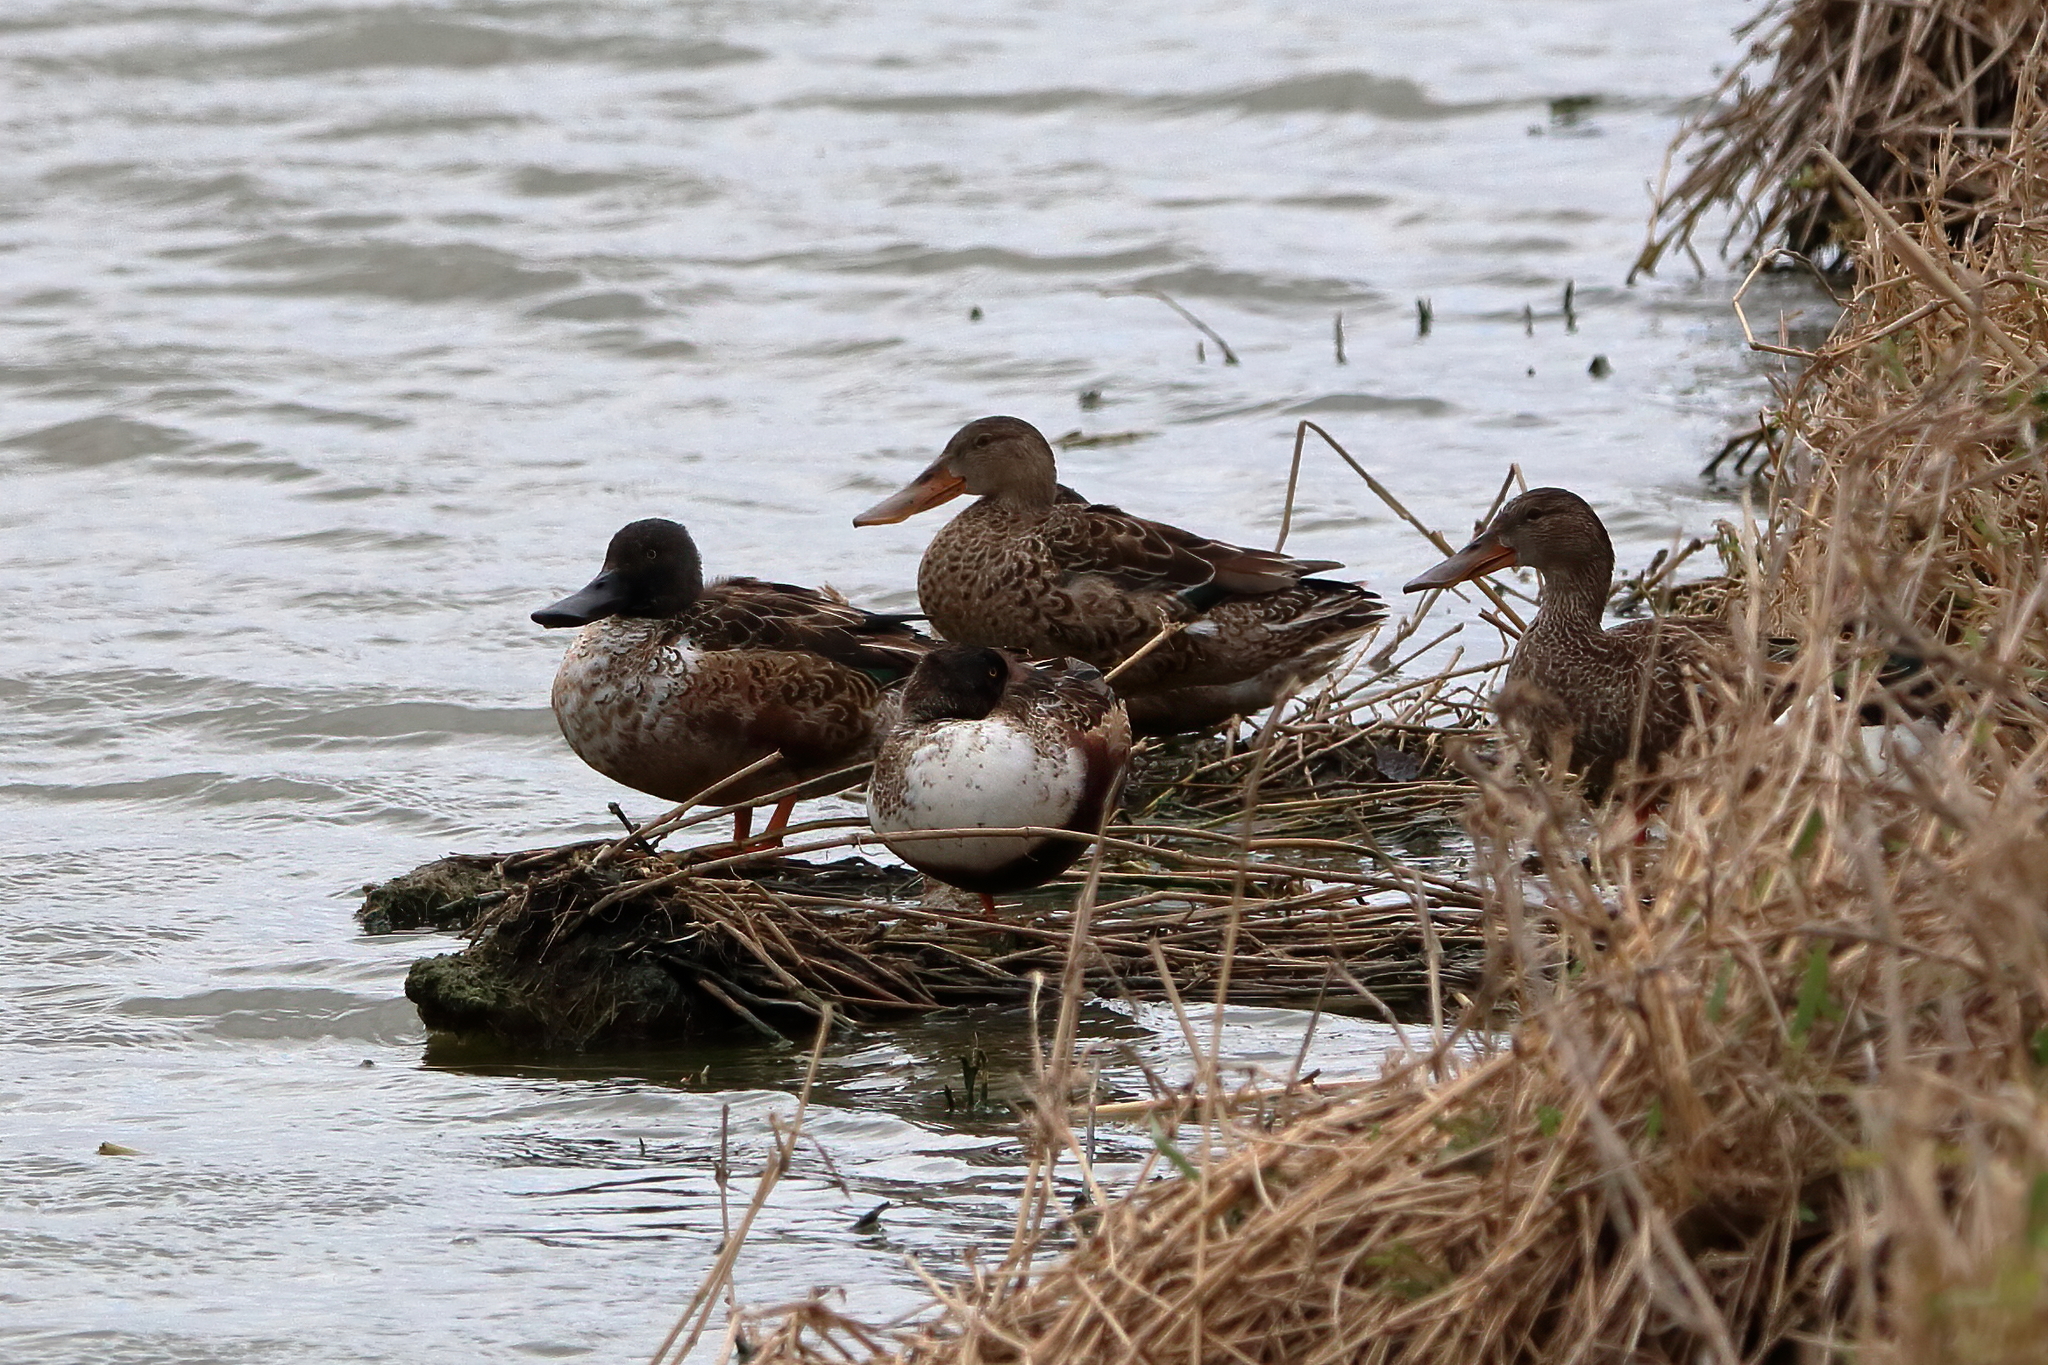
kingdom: Animalia
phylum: Chordata
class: Aves
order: Anseriformes
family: Anatidae
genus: Spatula
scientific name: Spatula clypeata
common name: Northern shoveler
